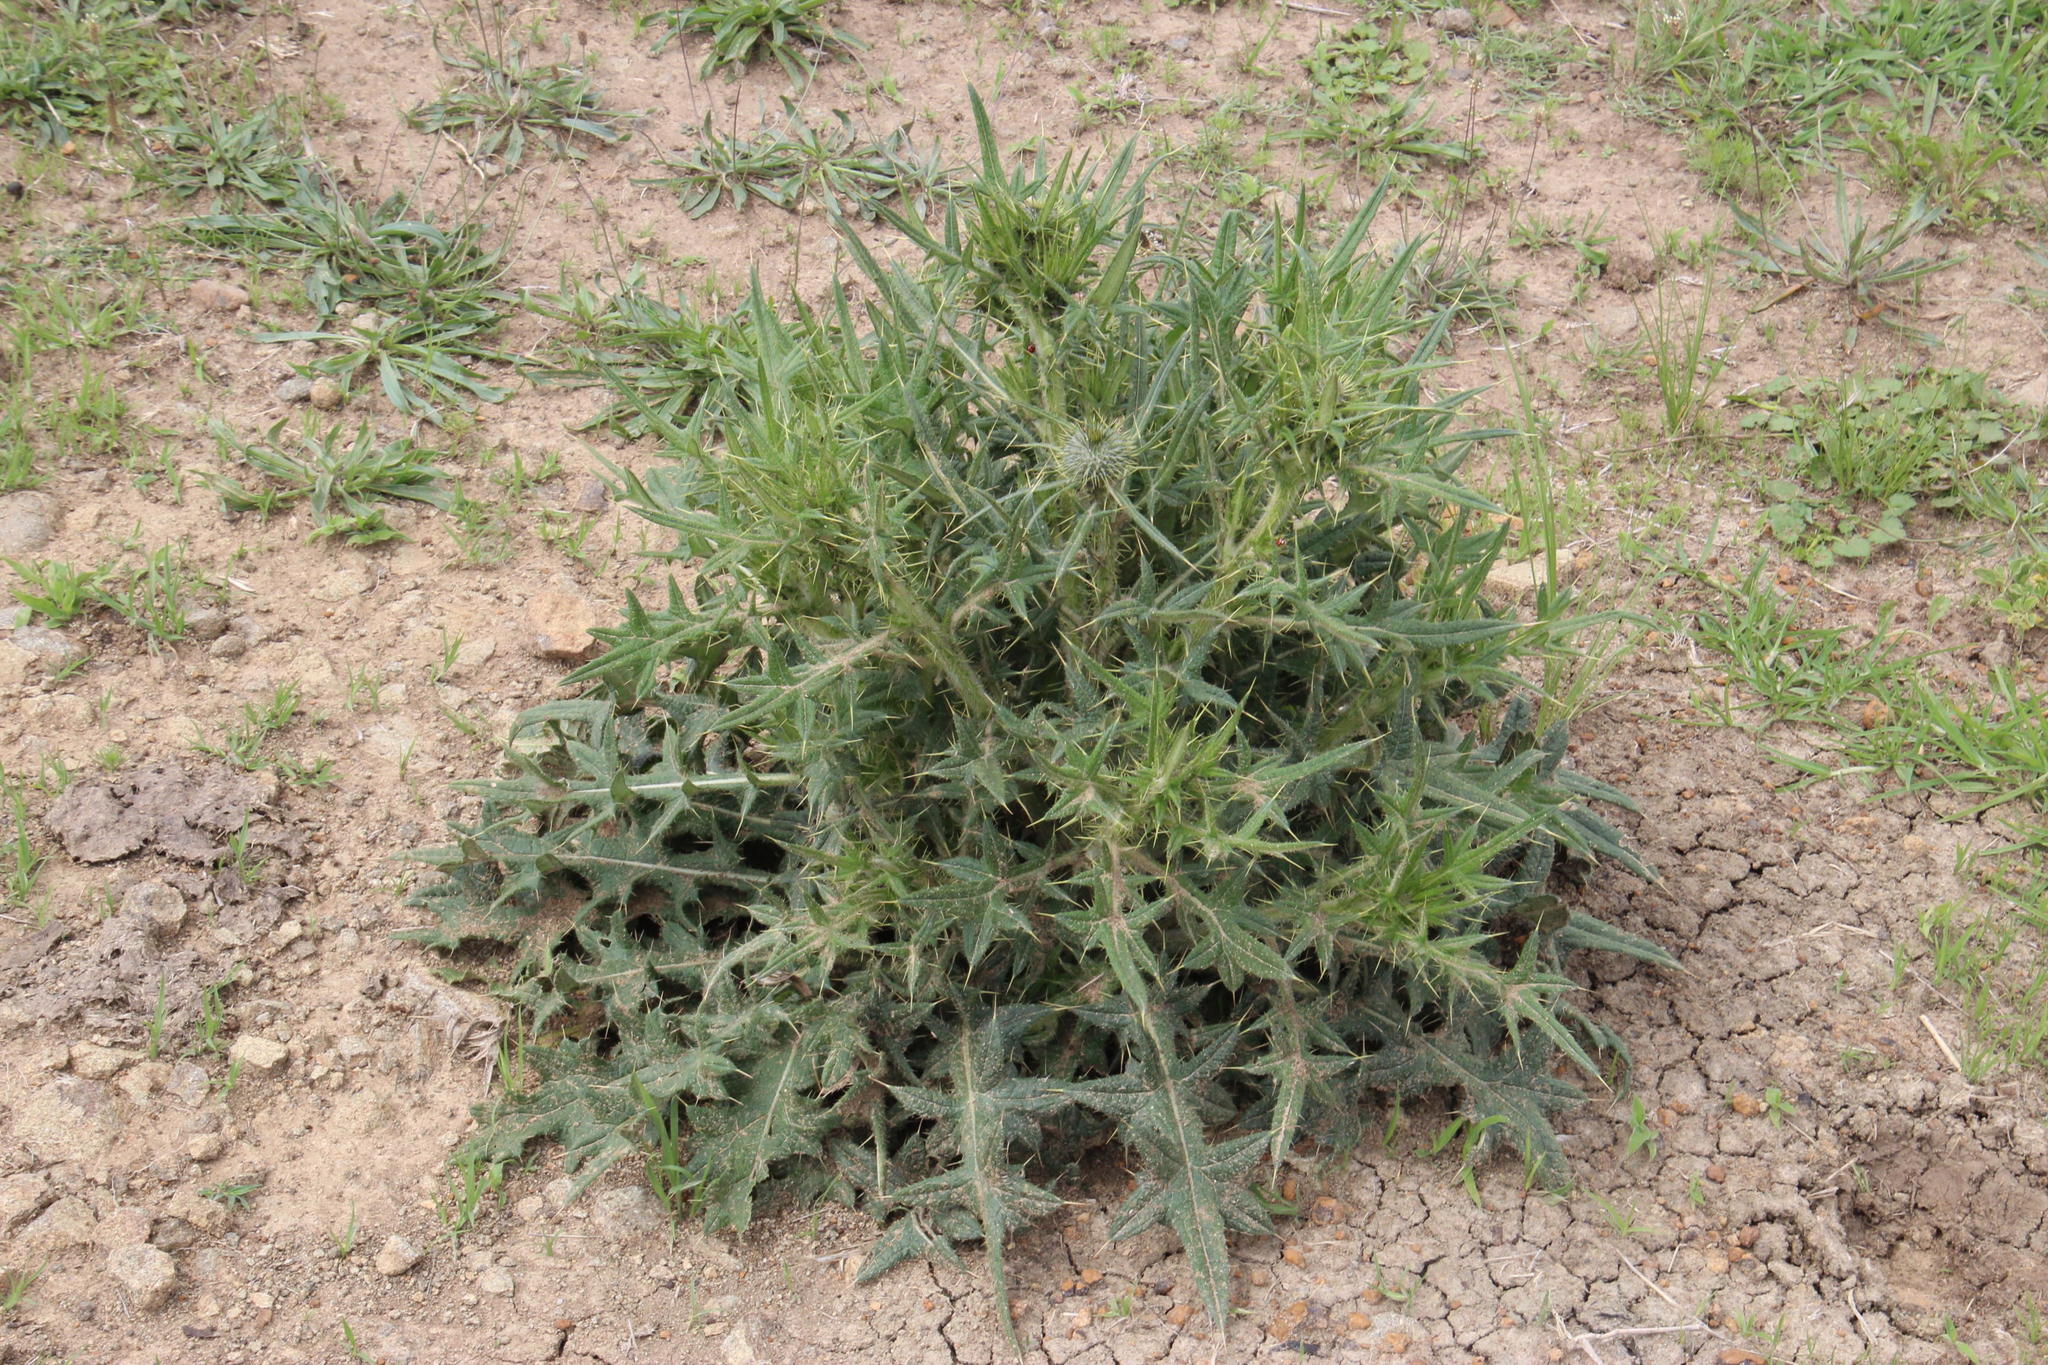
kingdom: Plantae
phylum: Tracheophyta
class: Magnoliopsida
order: Asterales
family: Asteraceae
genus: Cirsium
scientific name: Cirsium vulgare
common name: Bull thistle
